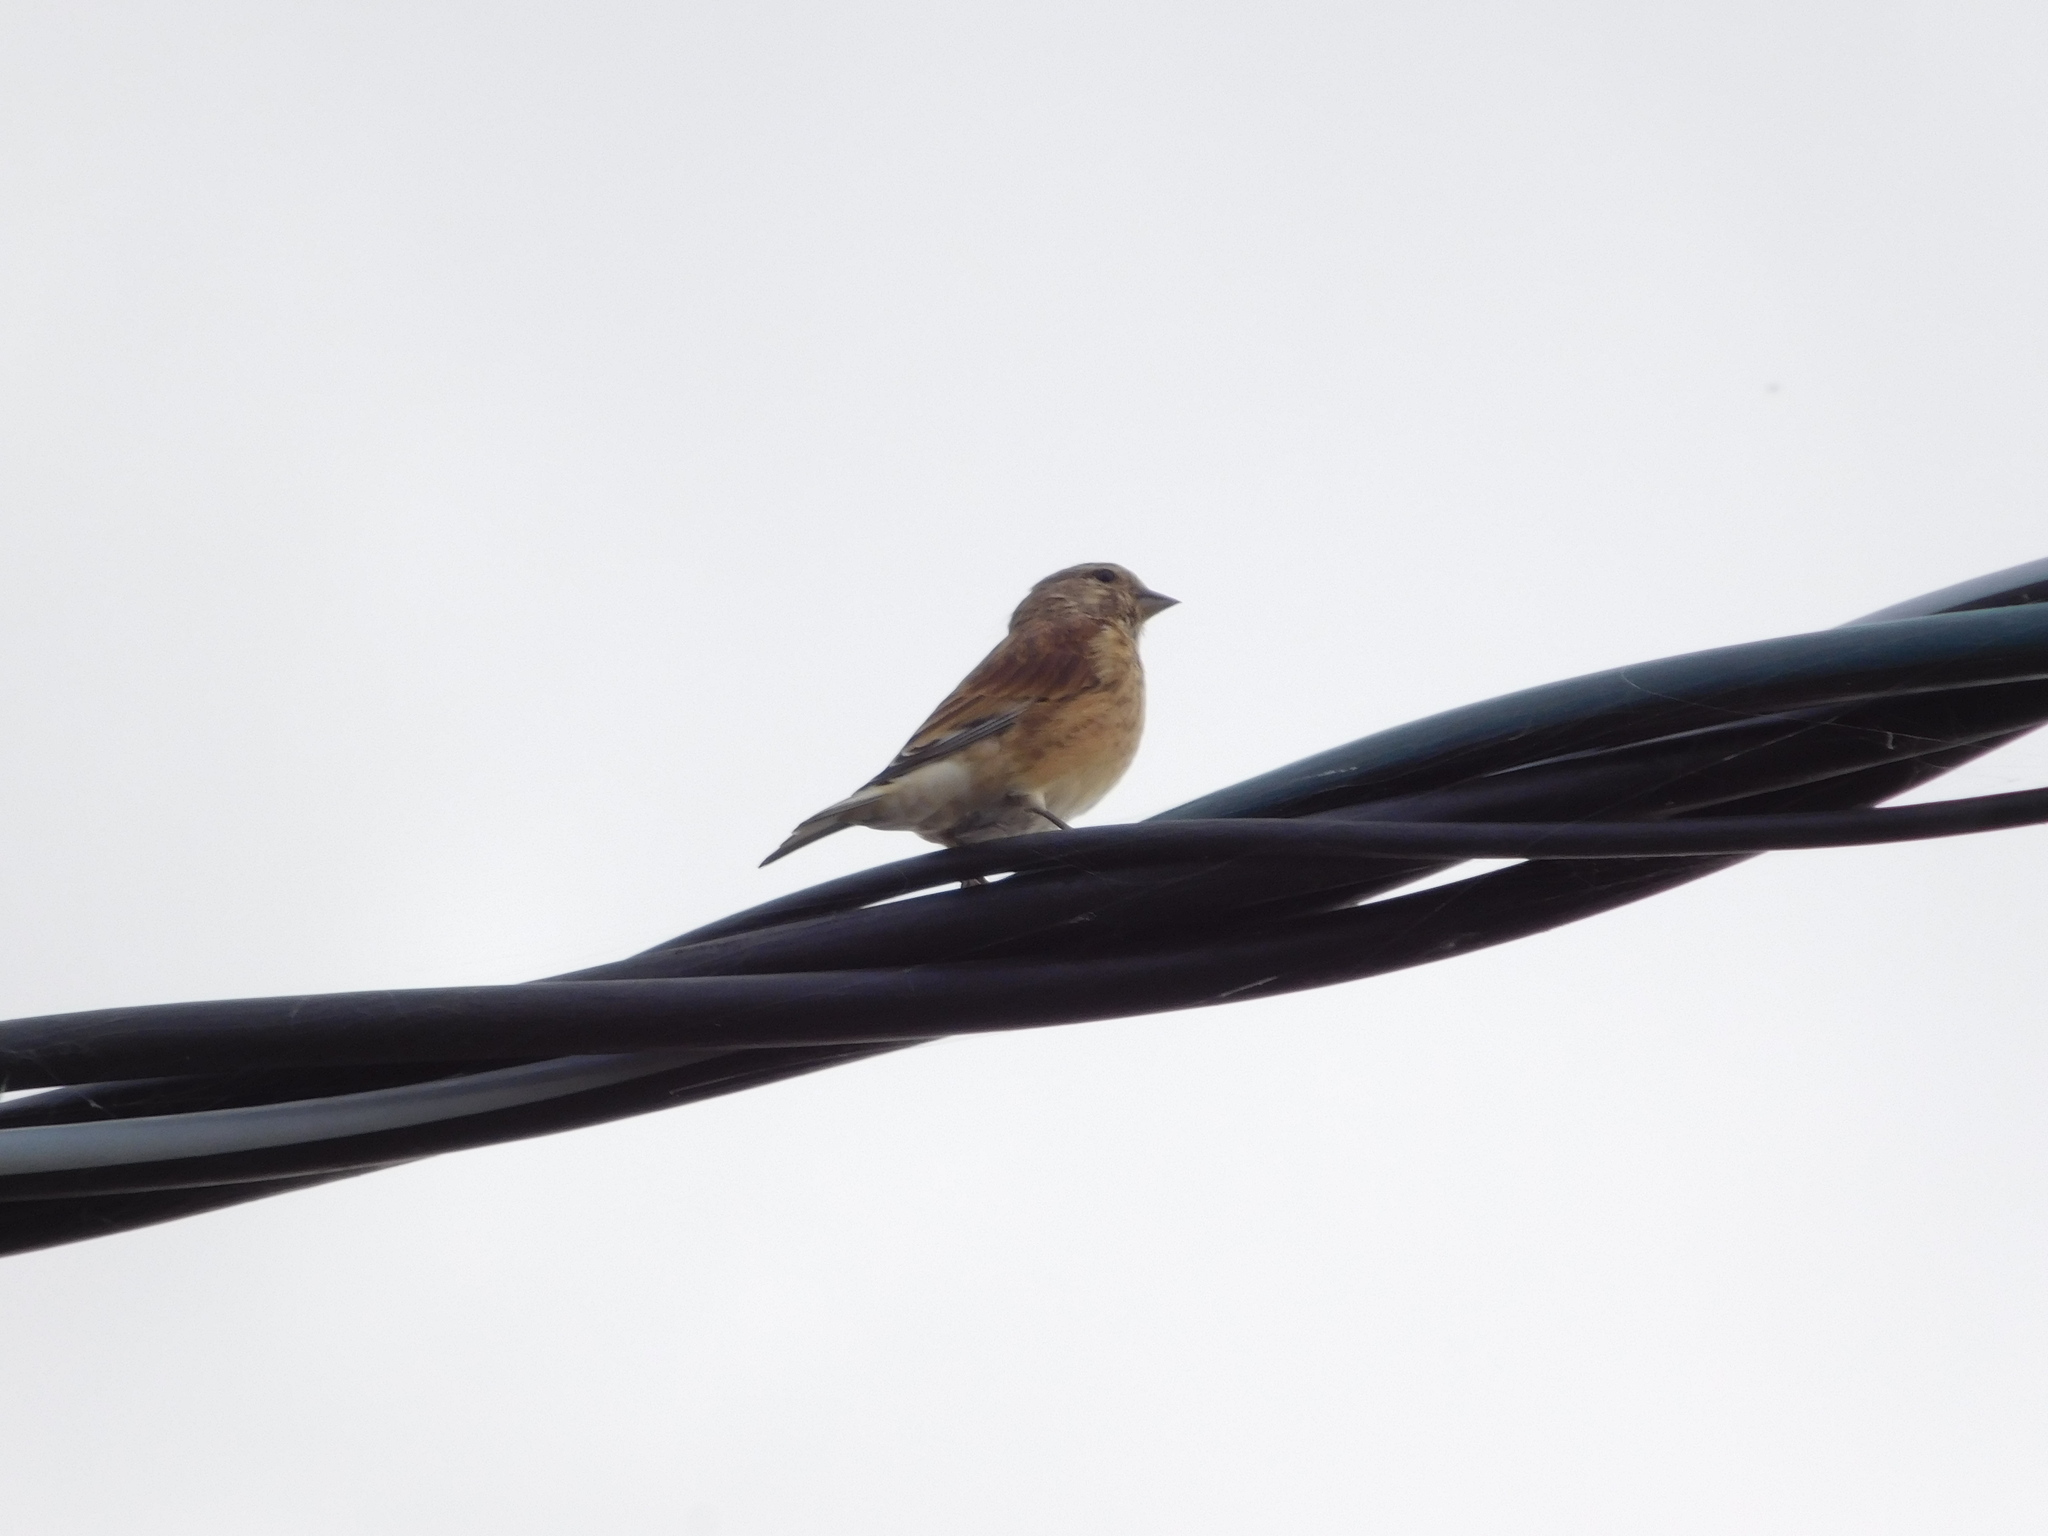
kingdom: Animalia
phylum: Chordata
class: Aves
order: Passeriformes
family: Fringillidae
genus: Linaria
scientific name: Linaria cannabina
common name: Common linnet
